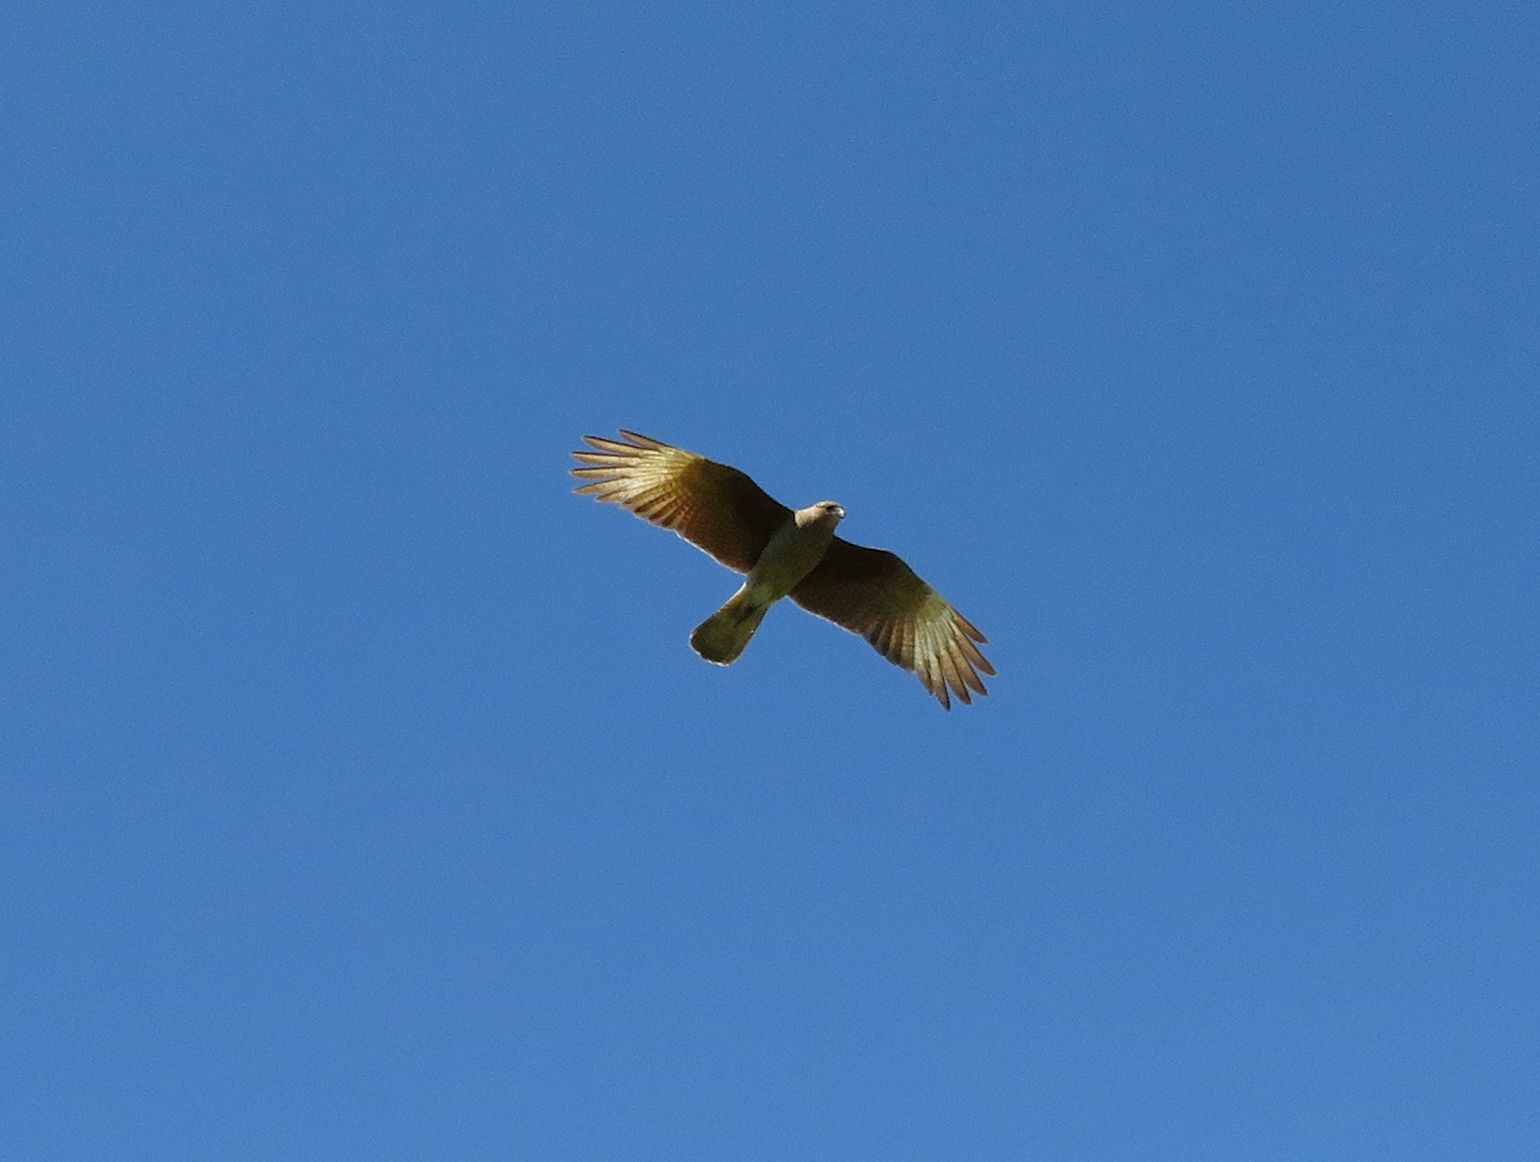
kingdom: Animalia
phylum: Chordata
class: Aves
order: Falconiformes
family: Falconidae
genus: Daptrius
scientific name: Daptrius
